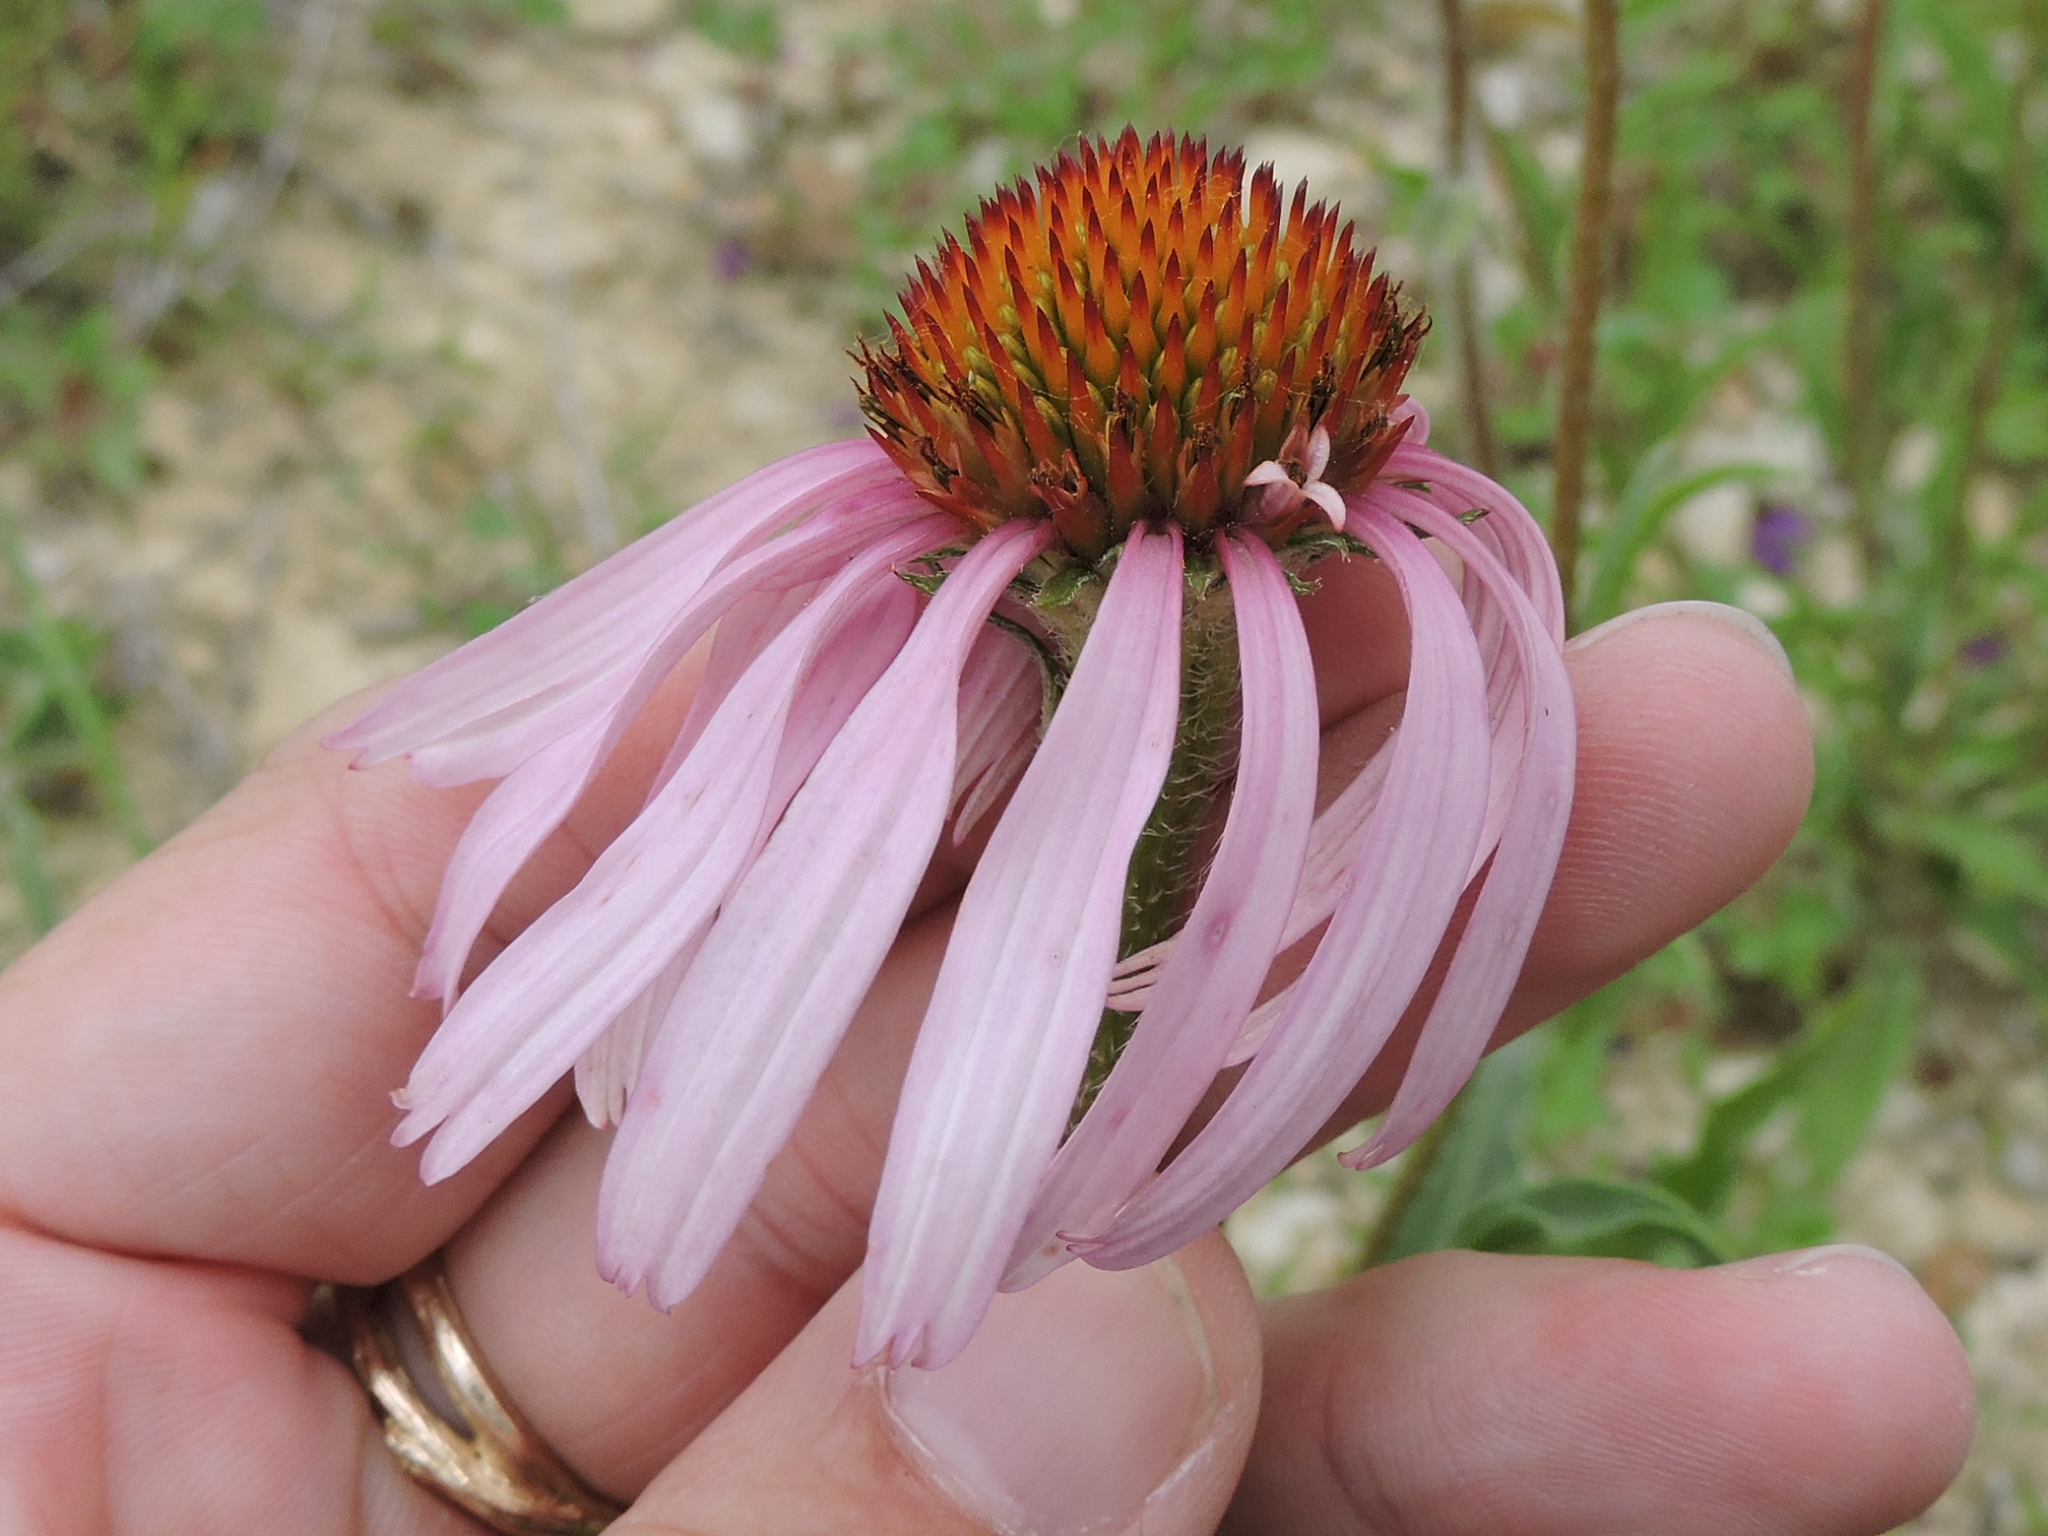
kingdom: Plantae
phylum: Tracheophyta
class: Magnoliopsida
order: Asterales
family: Asteraceae
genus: Echinacea
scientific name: Echinacea angustifolia
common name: Black-sampson echinacea
